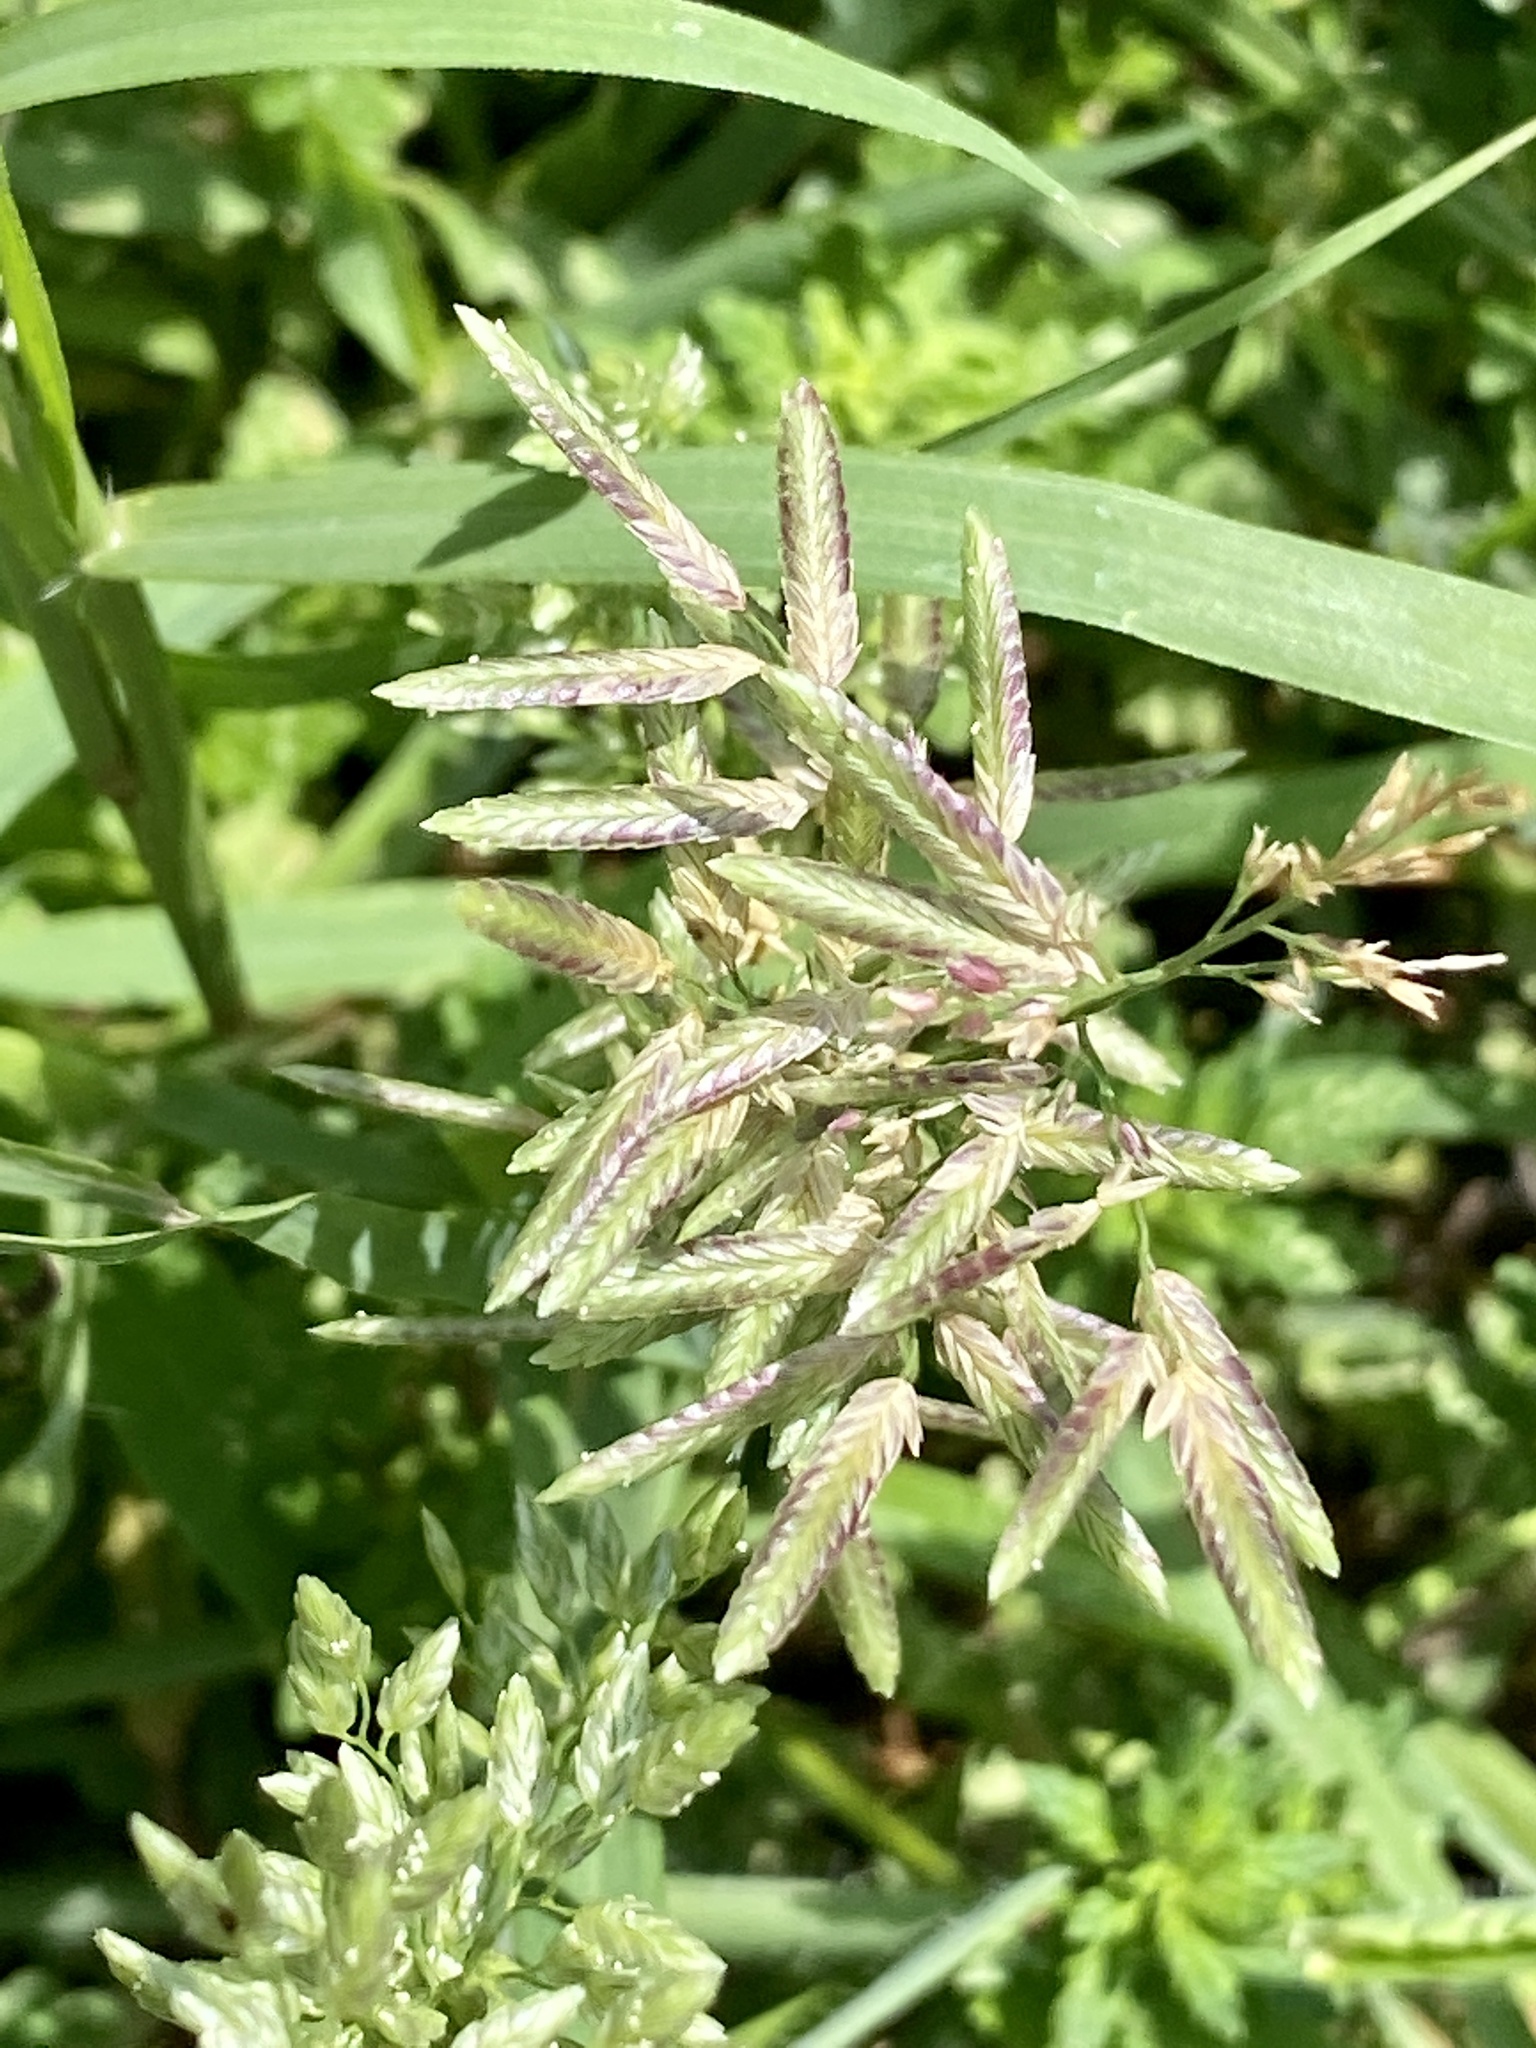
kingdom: Plantae
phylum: Tracheophyta
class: Liliopsida
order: Poales
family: Poaceae
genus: Eragrostis
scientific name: Eragrostis cilianensis
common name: Stinkgrass
